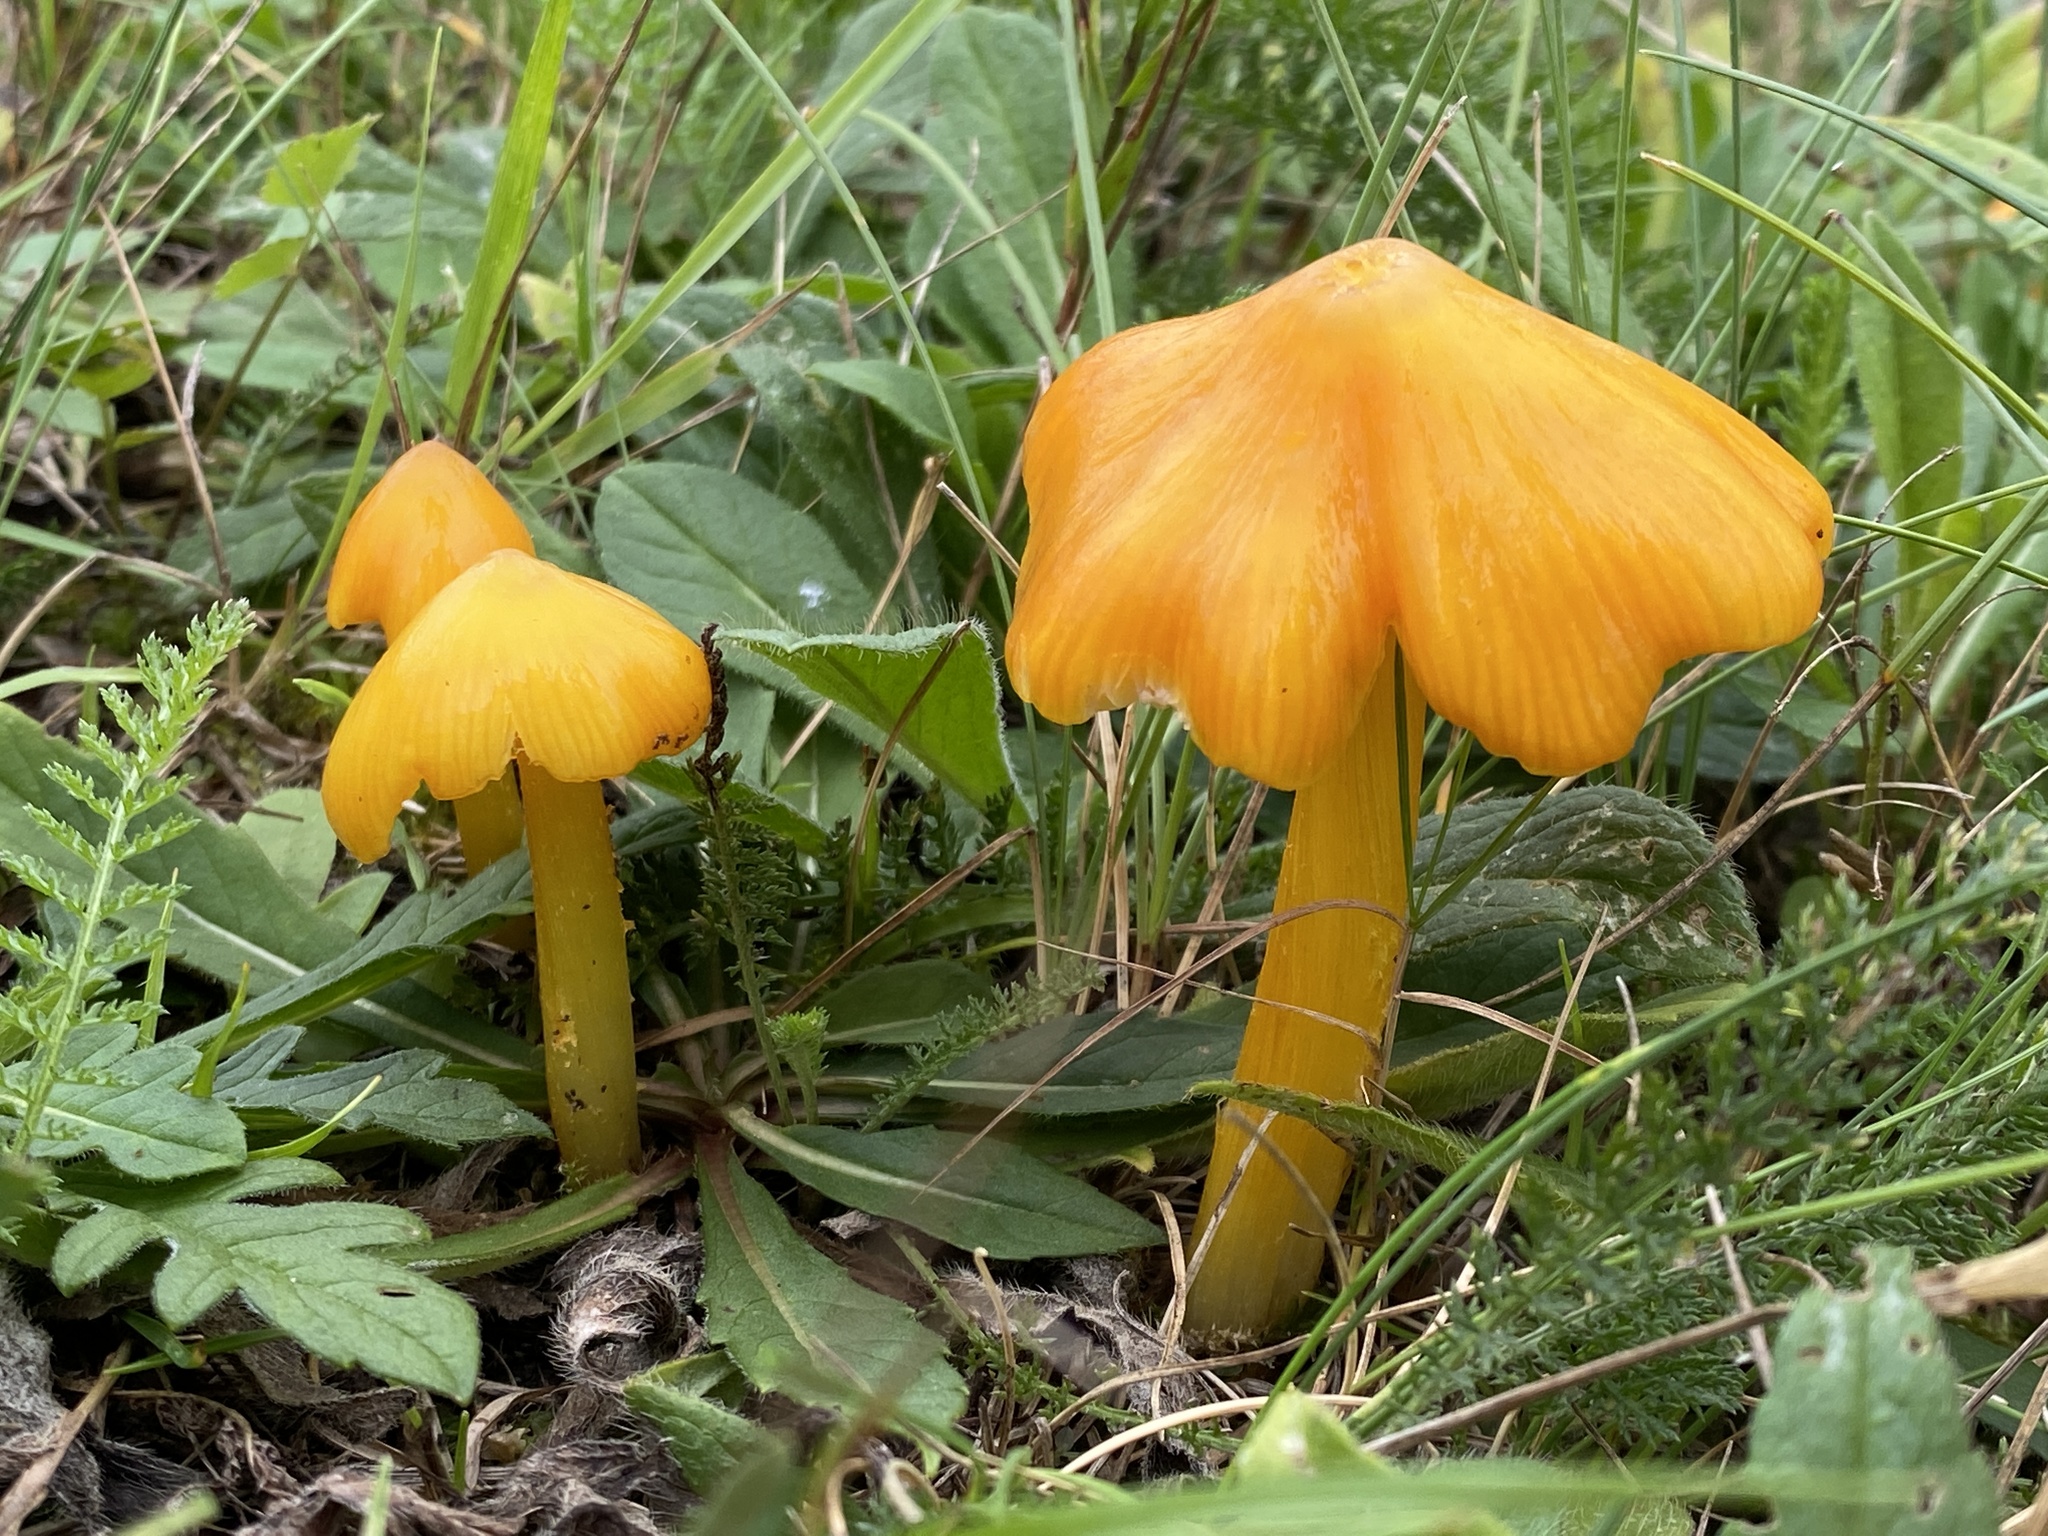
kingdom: Fungi
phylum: Basidiomycota
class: Agaricomycetes
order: Agaricales
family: Hygrophoraceae
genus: Hygrocybe
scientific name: Hygrocybe acutoconica
